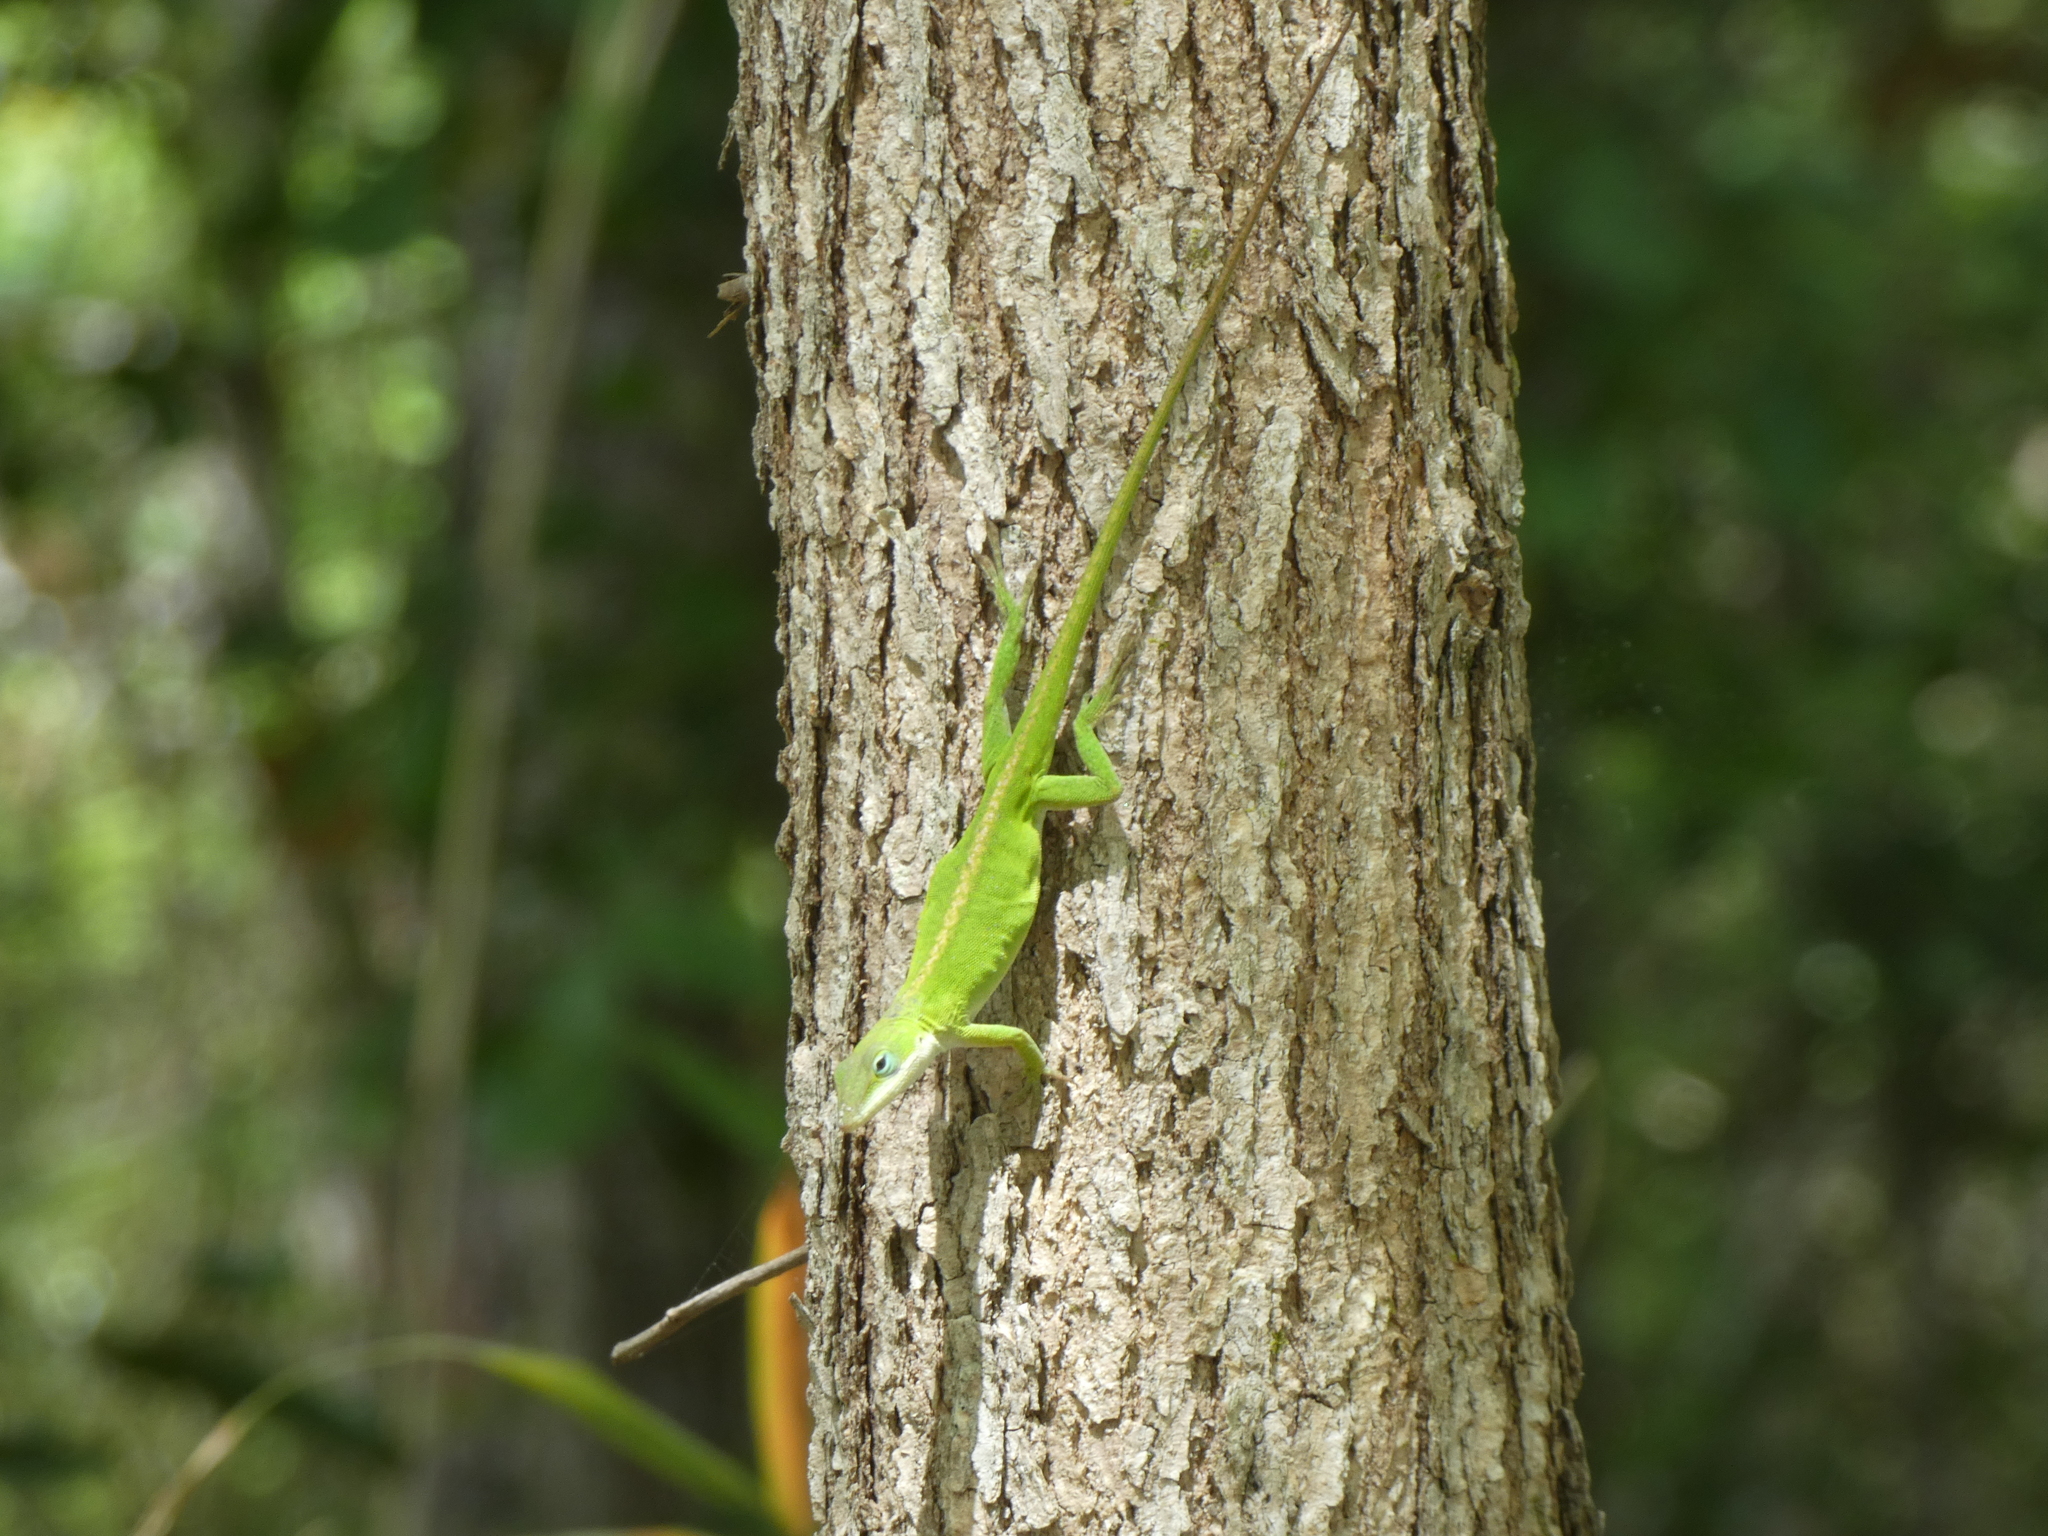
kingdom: Animalia
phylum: Chordata
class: Squamata
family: Dactyloidae
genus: Anolis
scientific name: Anolis carolinensis
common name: Green anole
